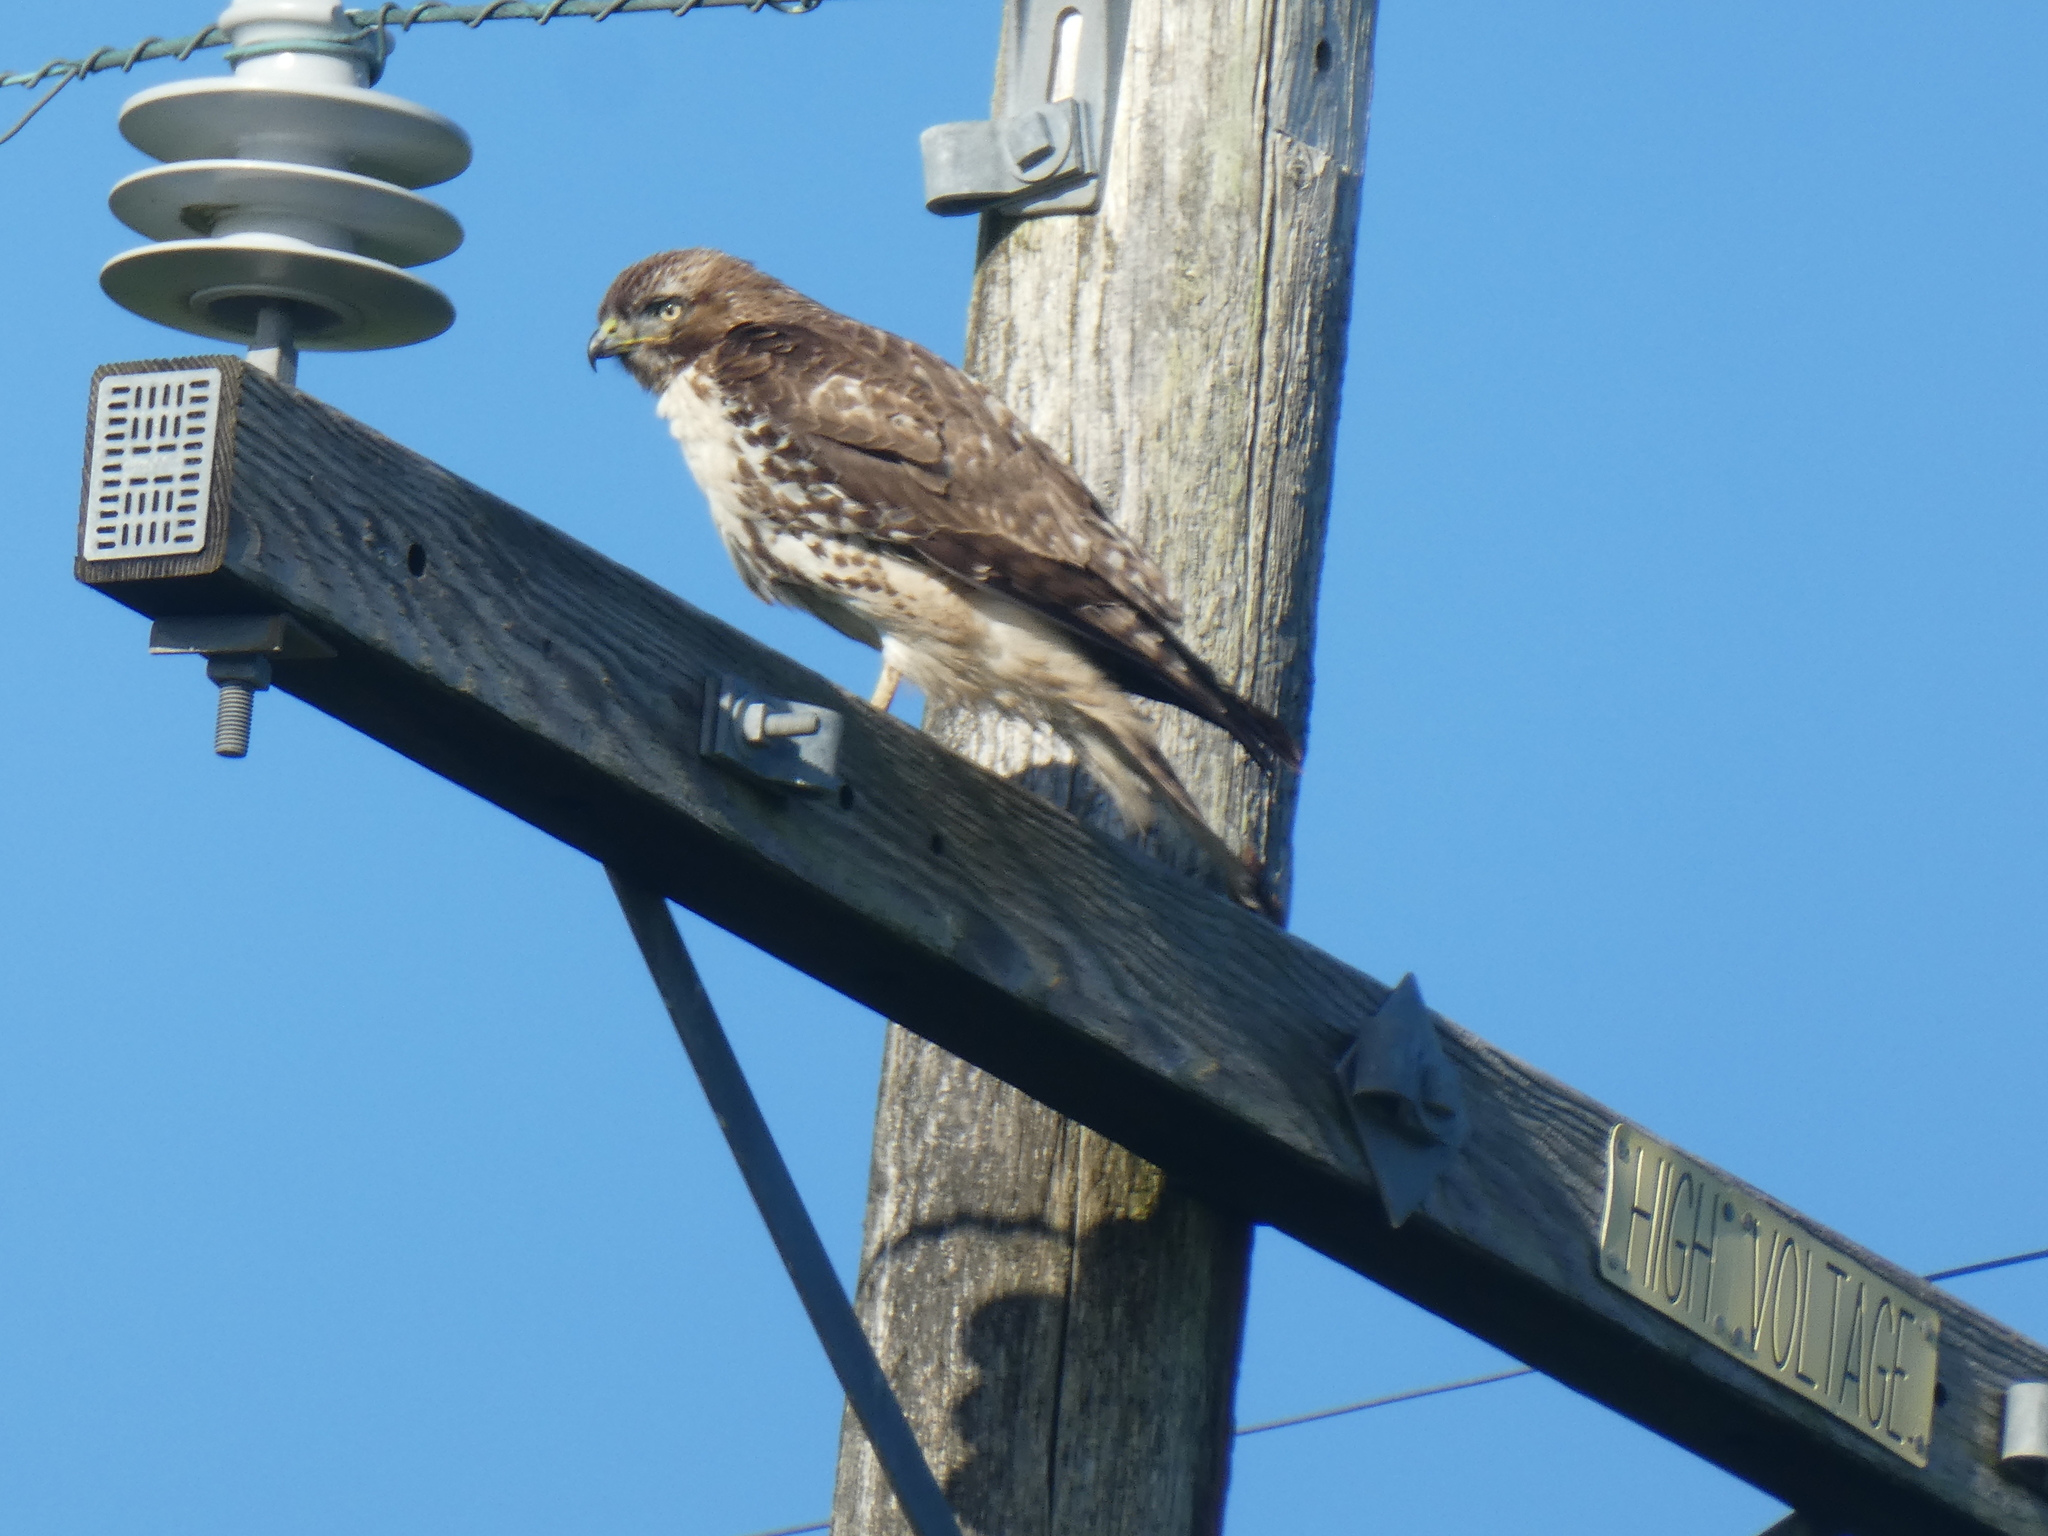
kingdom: Animalia
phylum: Chordata
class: Aves
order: Accipitriformes
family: Accipitridae
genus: Buteo
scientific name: Buteo jamaicensis
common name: Red-tailed hawk
